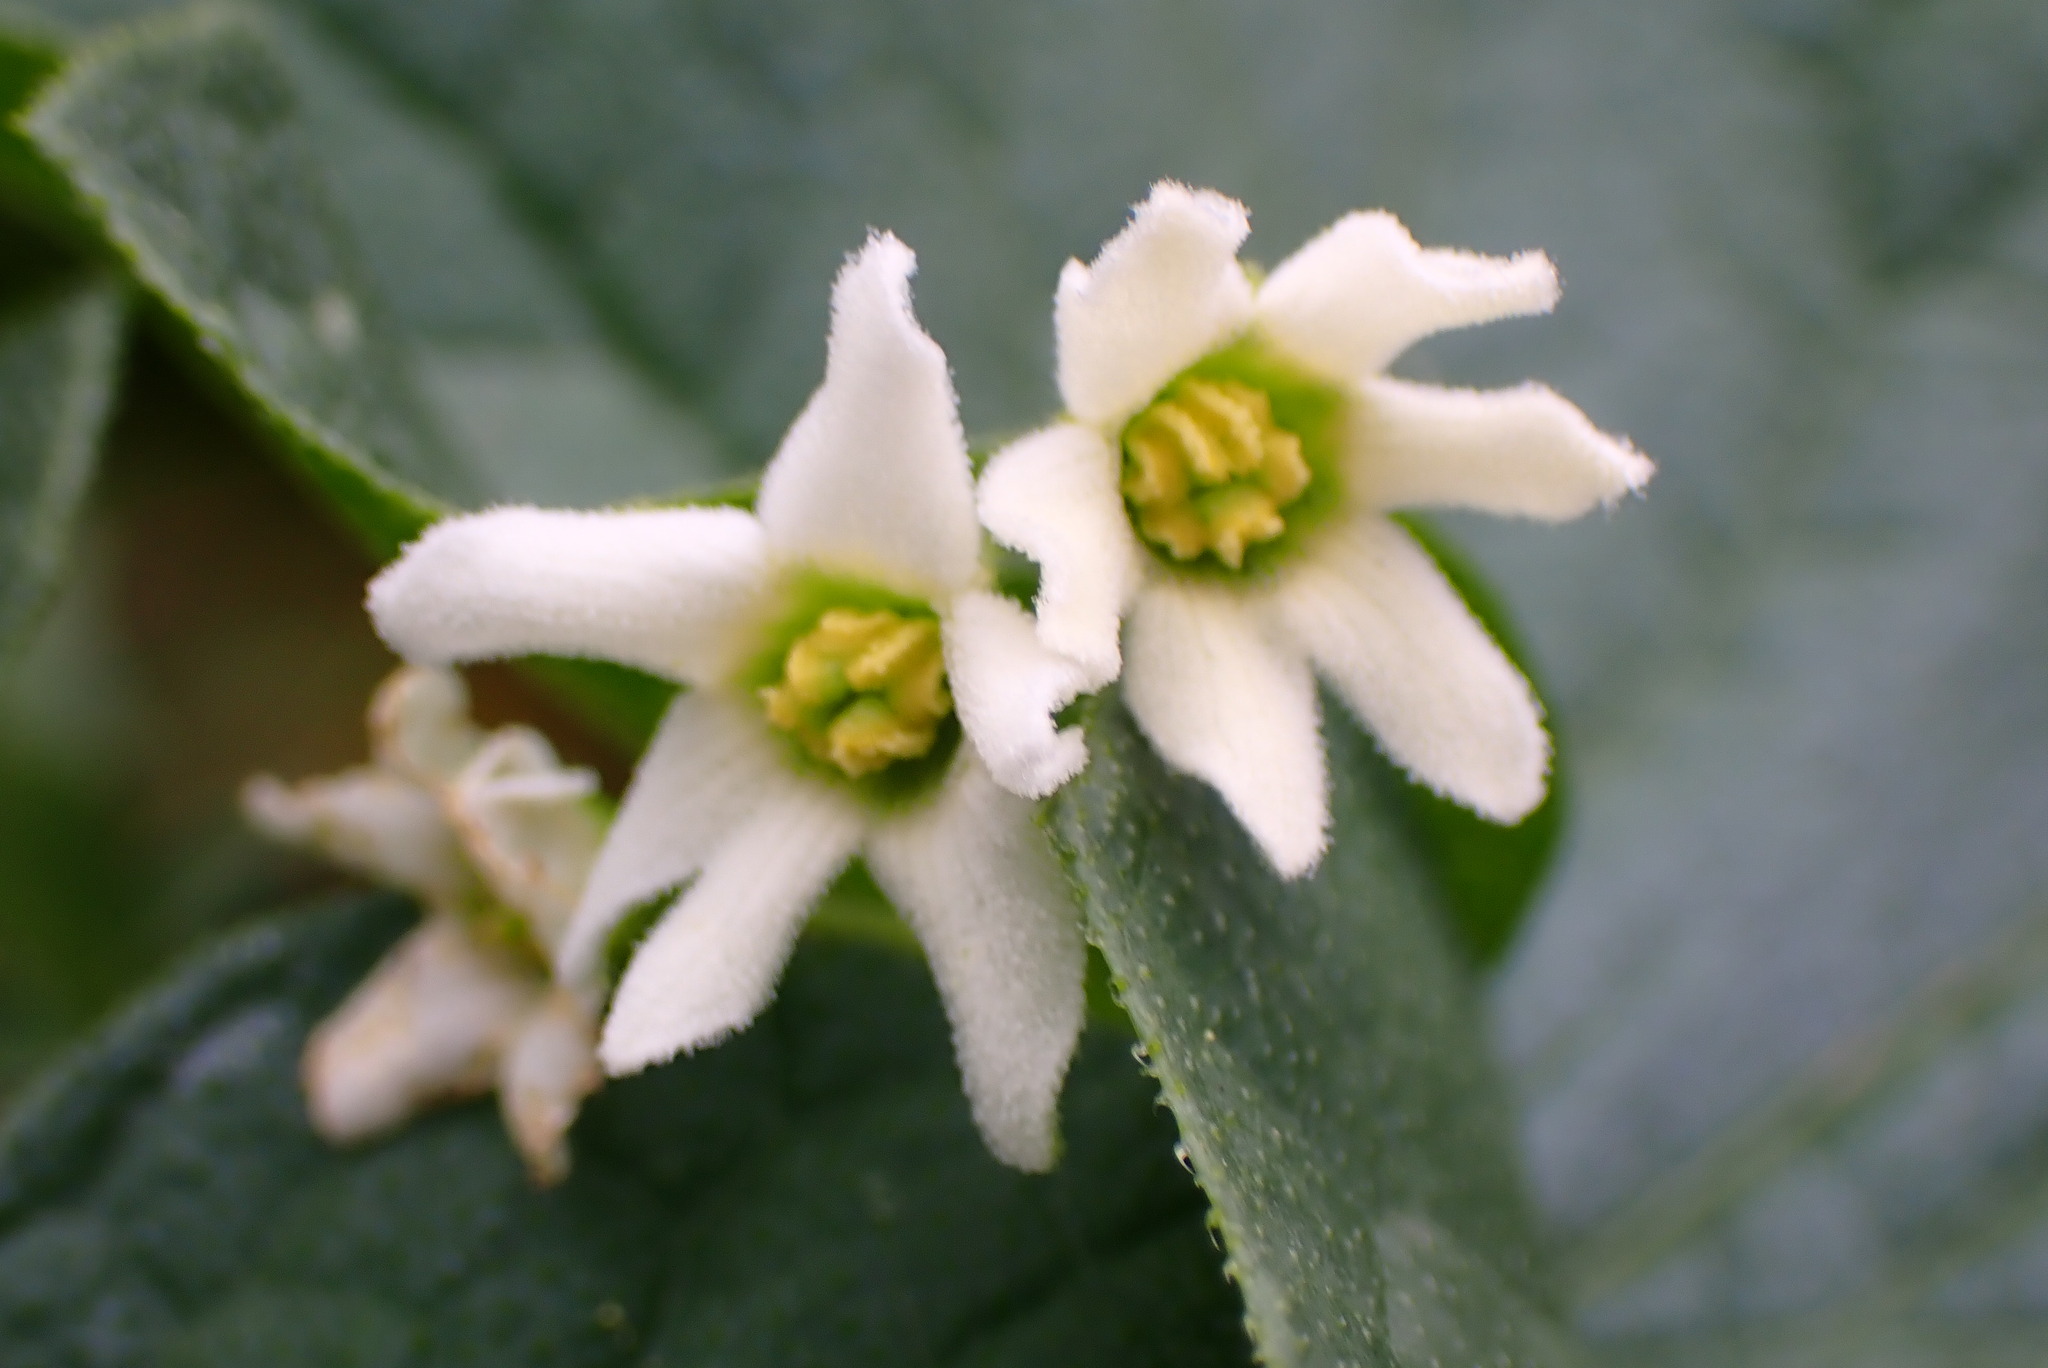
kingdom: Plantae
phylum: Tracheophyta
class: Magnoliopsida
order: Cucurbitales
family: Cucurbitaceae
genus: Marah
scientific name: Marah oregana
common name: Coastal manroot
